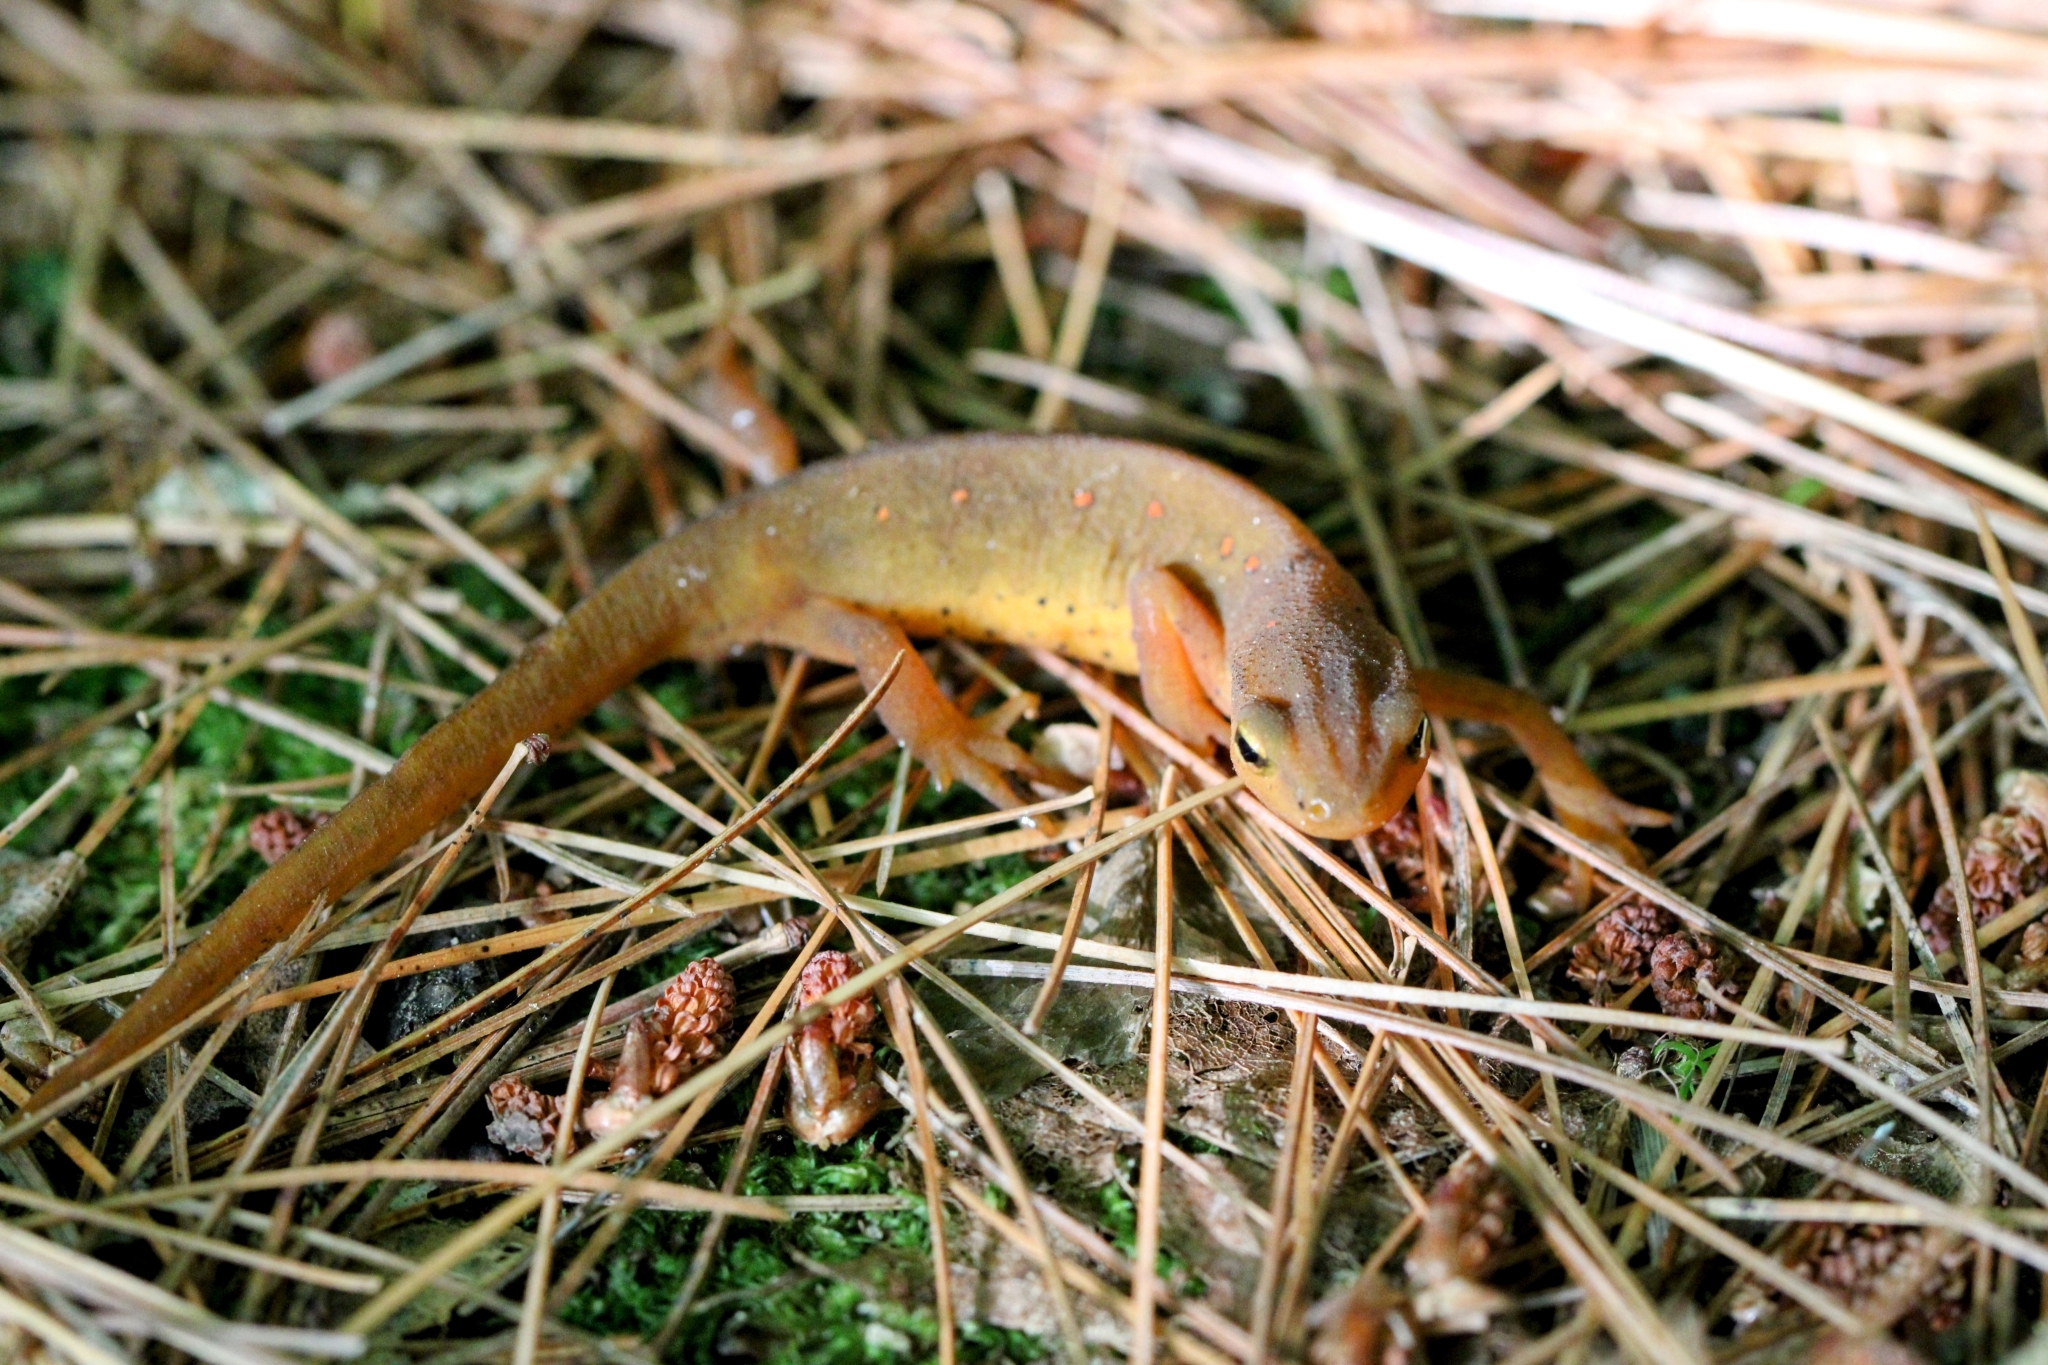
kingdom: Animalia
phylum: Chordata
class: Amphibia
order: Caudata
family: Salamandridae
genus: Notophthalmus
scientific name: Notophthalmus viridescens
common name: Eastern newt
